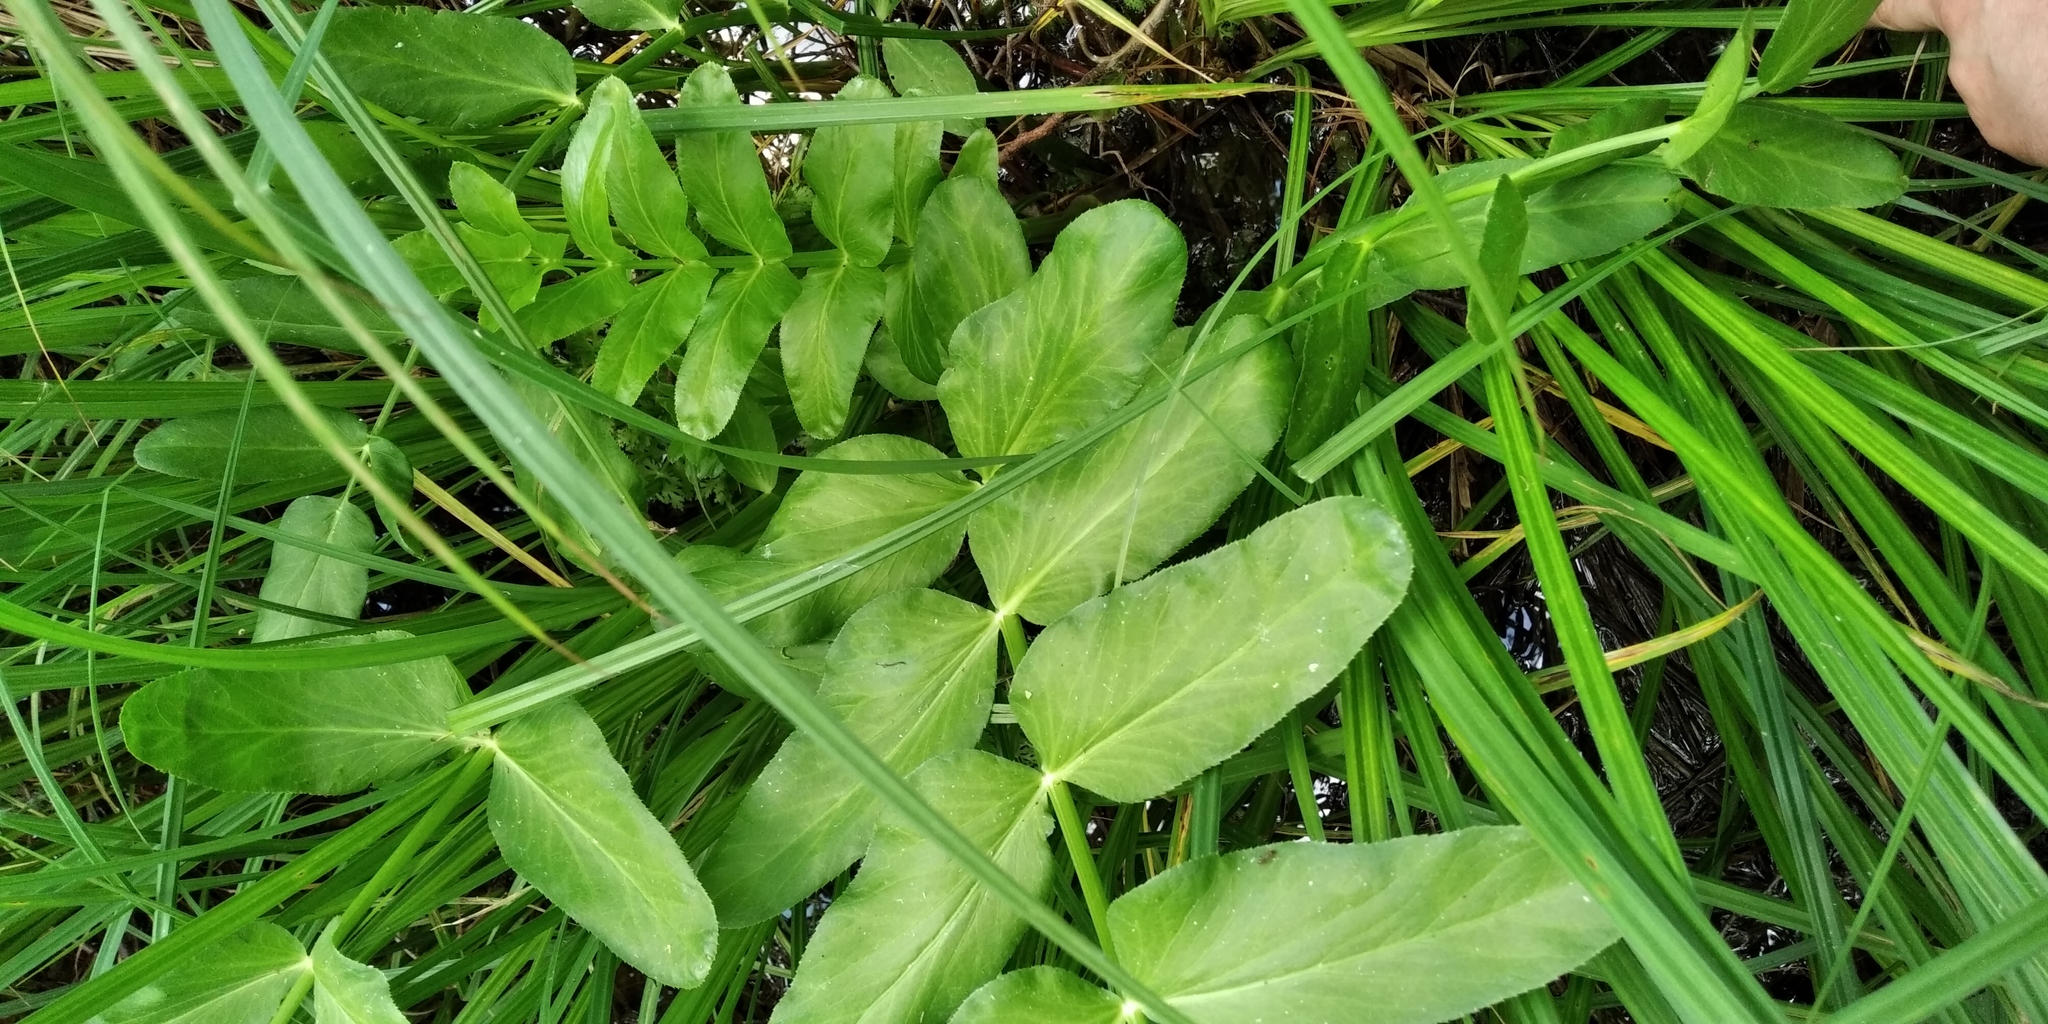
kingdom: Plantae
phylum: Tracheophyta
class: Magnoliopsida
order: Apiales
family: Apiaceae
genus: Sium
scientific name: Sium latifolium
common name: Greater water-parsnip
